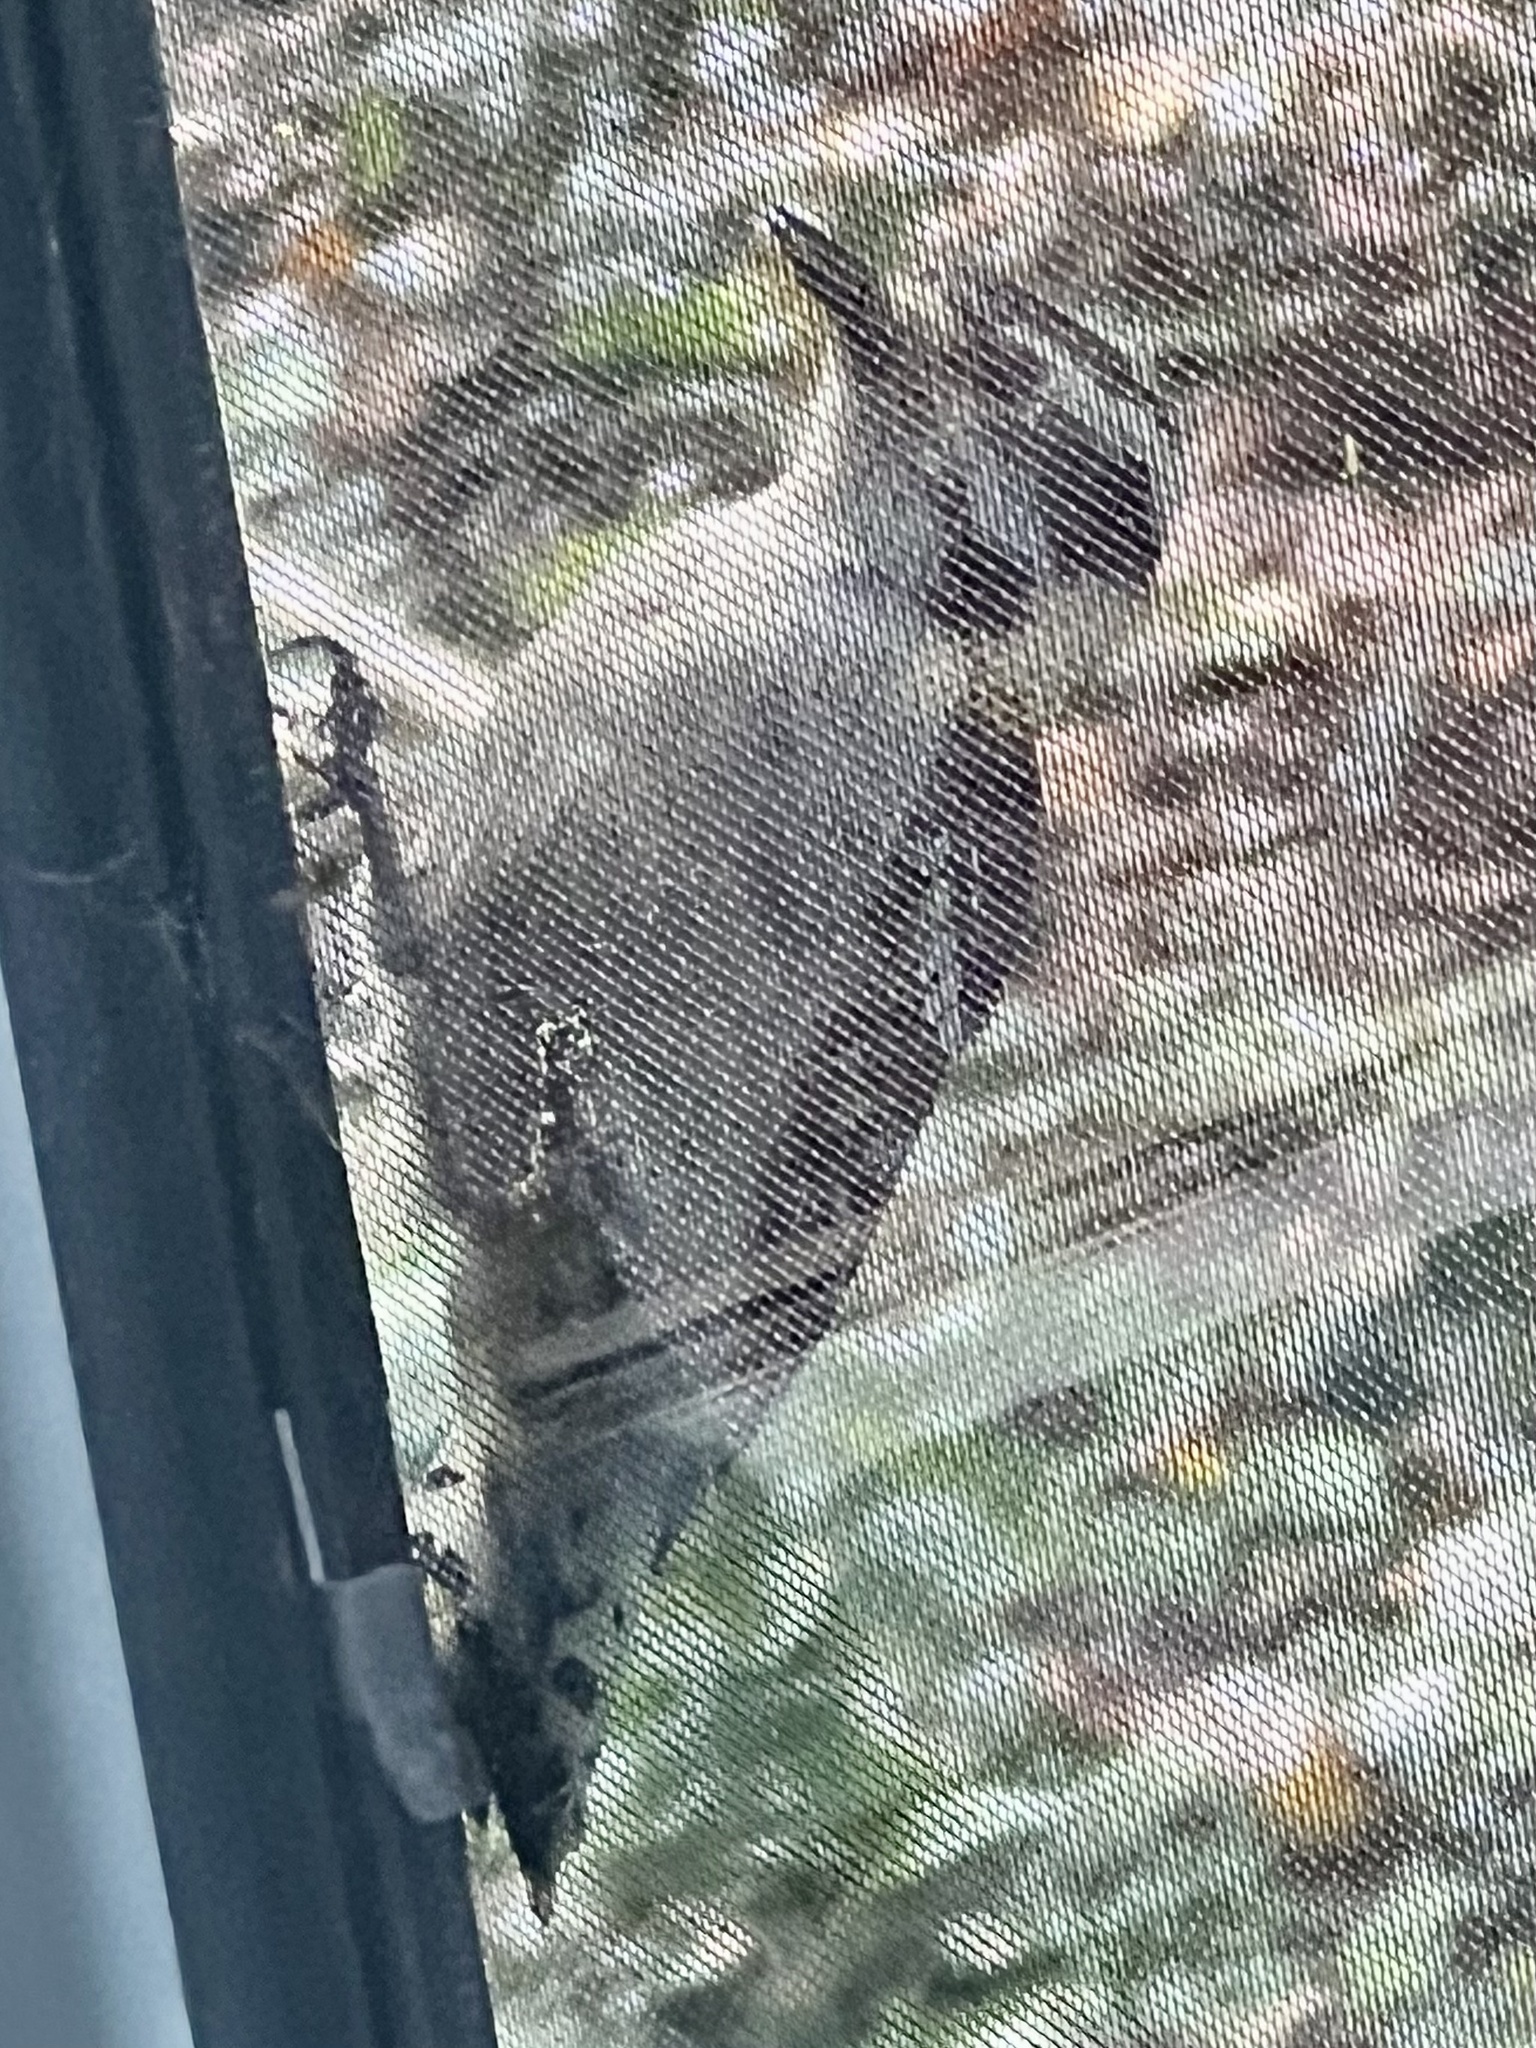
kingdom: Animalia
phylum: Chordata
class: Aves
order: Piciformes
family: Picidae
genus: Dryobates
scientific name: Dryobates pubescens
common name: Downy woodpecker
